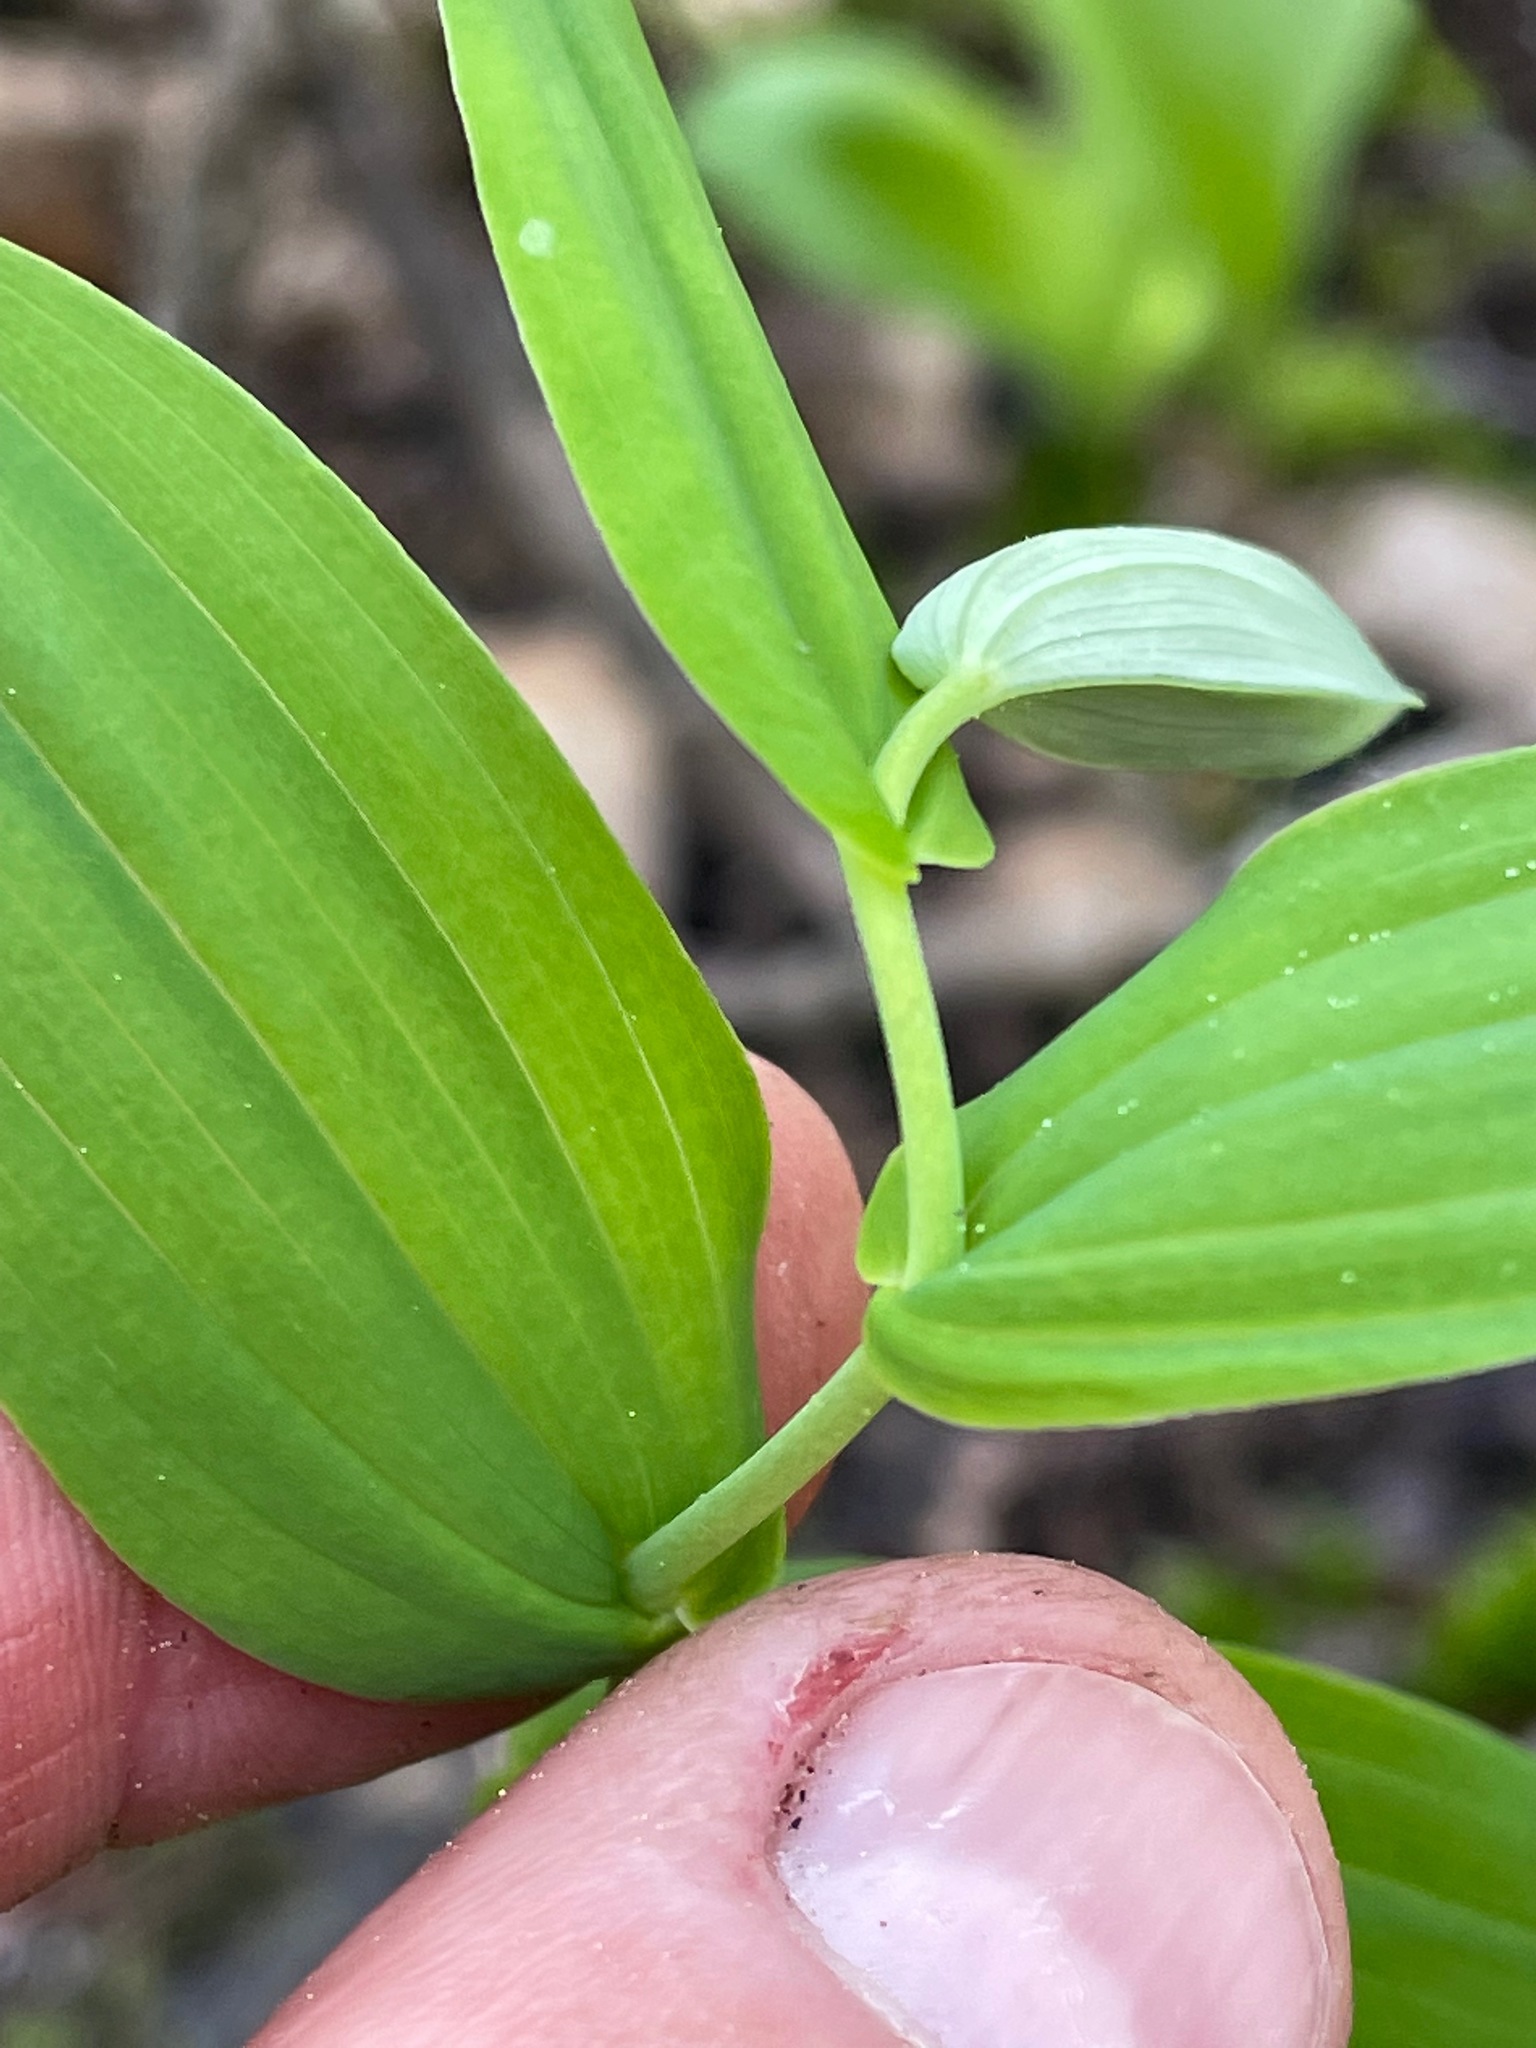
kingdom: Plantae
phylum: Tracheophyta
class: Liliopsida
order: Liliales
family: Liliaceae
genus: Streptopus
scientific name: Streptopus amplexifolius
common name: Clasp twisted stalk
